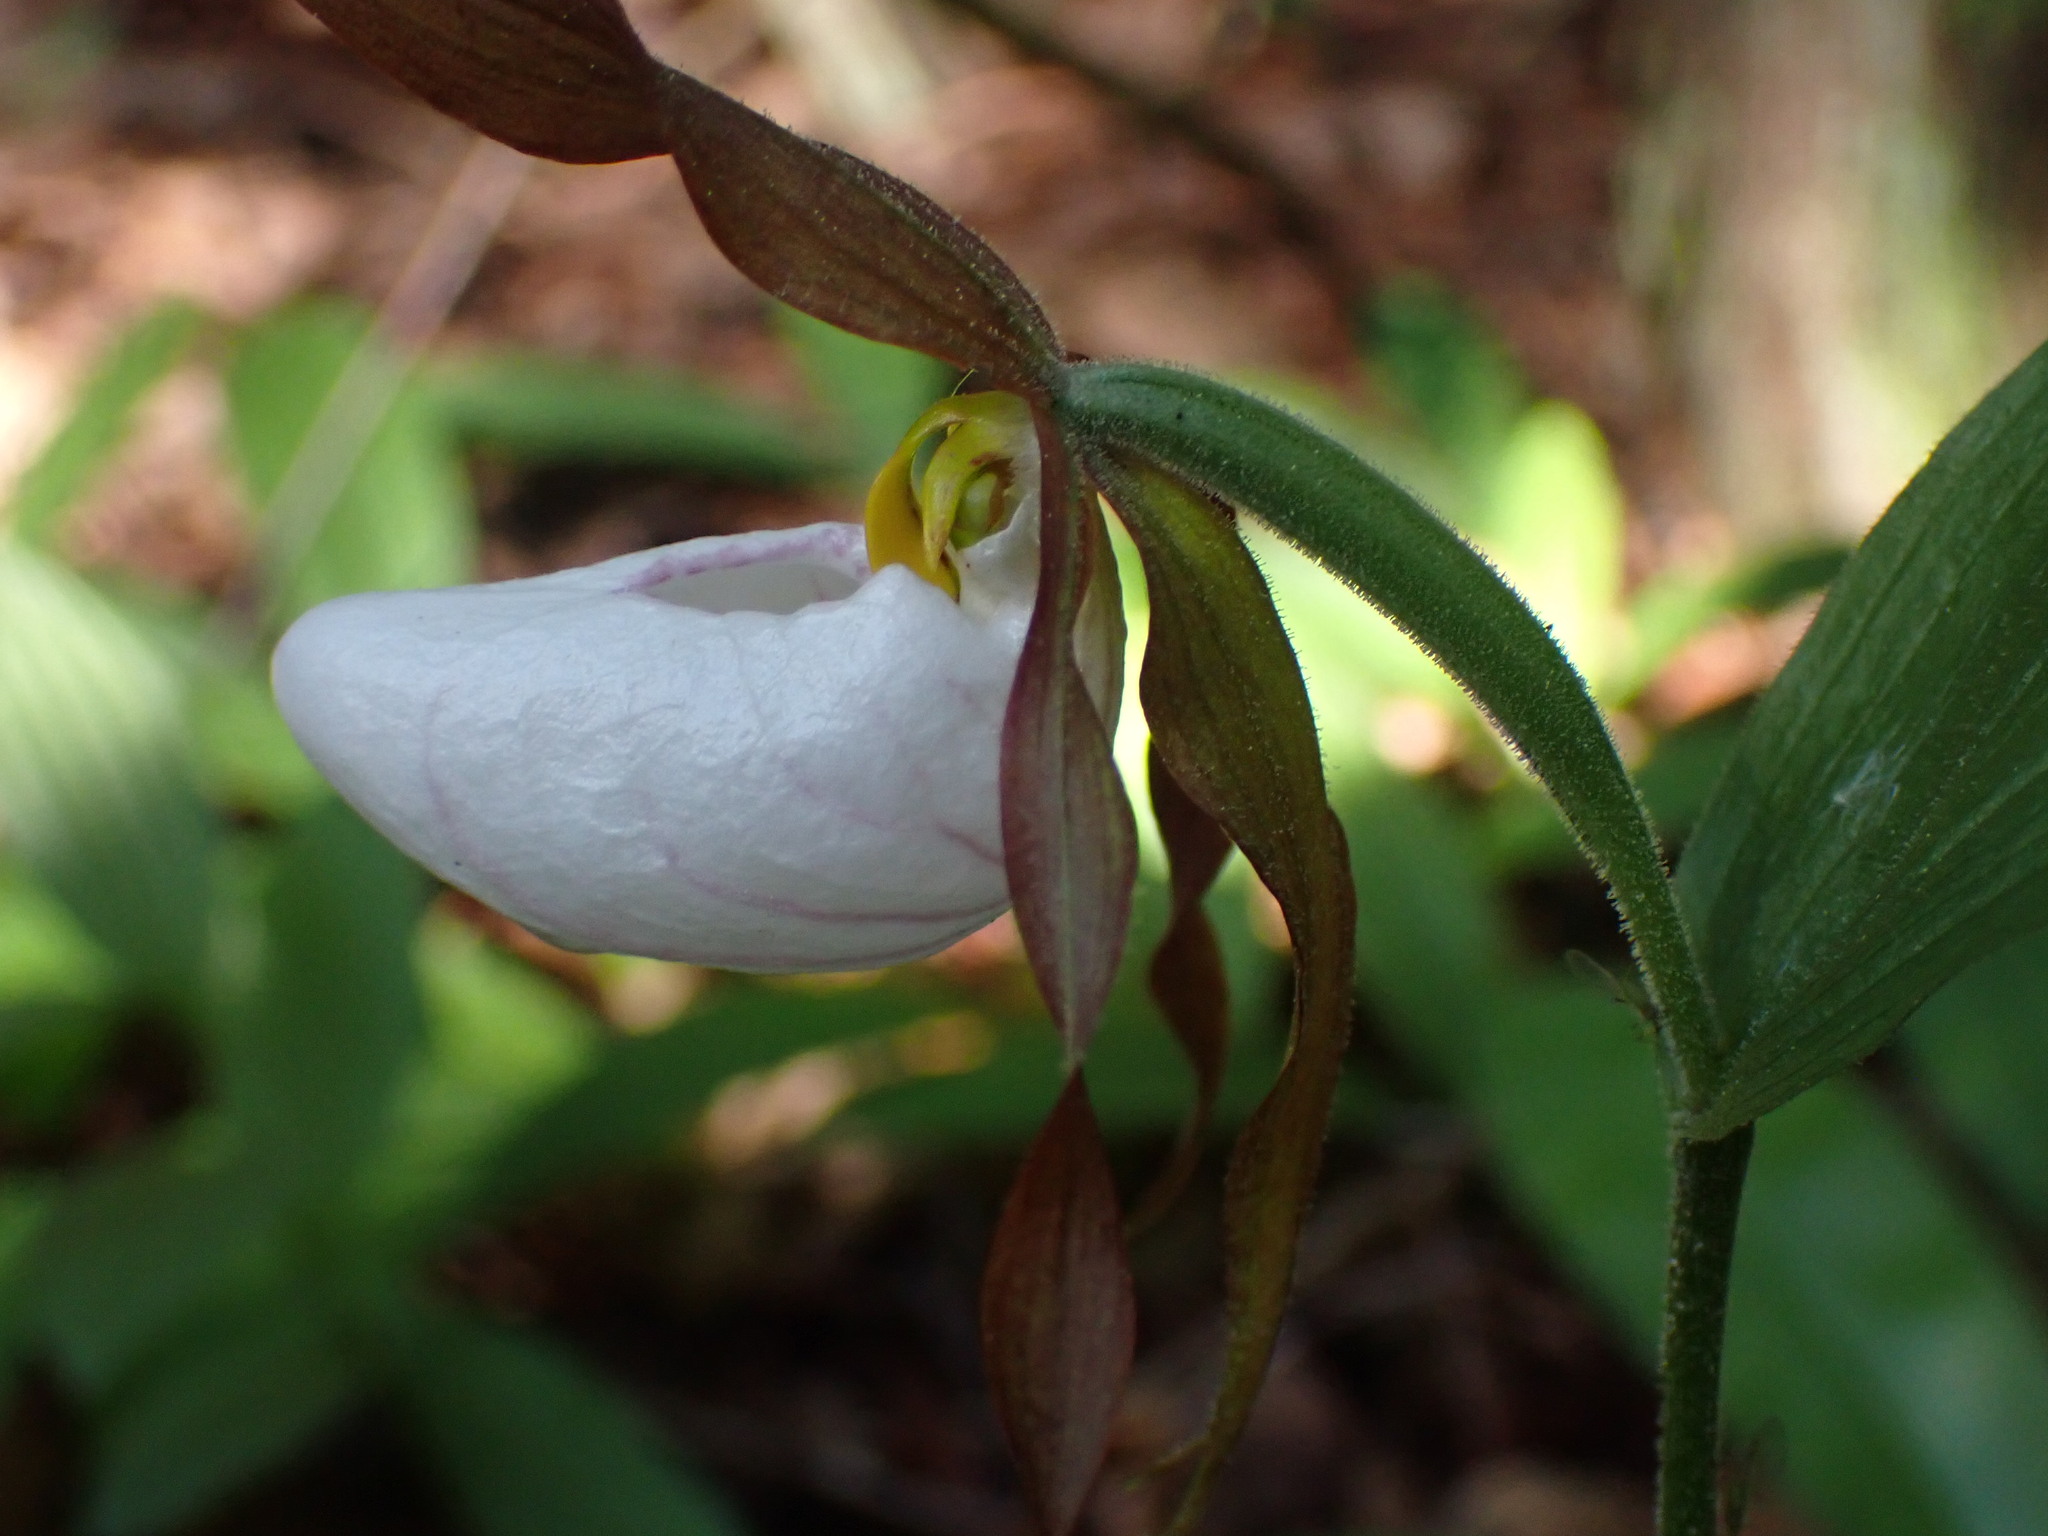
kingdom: Plantae
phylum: Tracheophyta
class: Liliopsida
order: Asparagales
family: Orchidaceae
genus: Cypripedium
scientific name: Cypripedium montanum
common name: Mountain lady's-slipper
